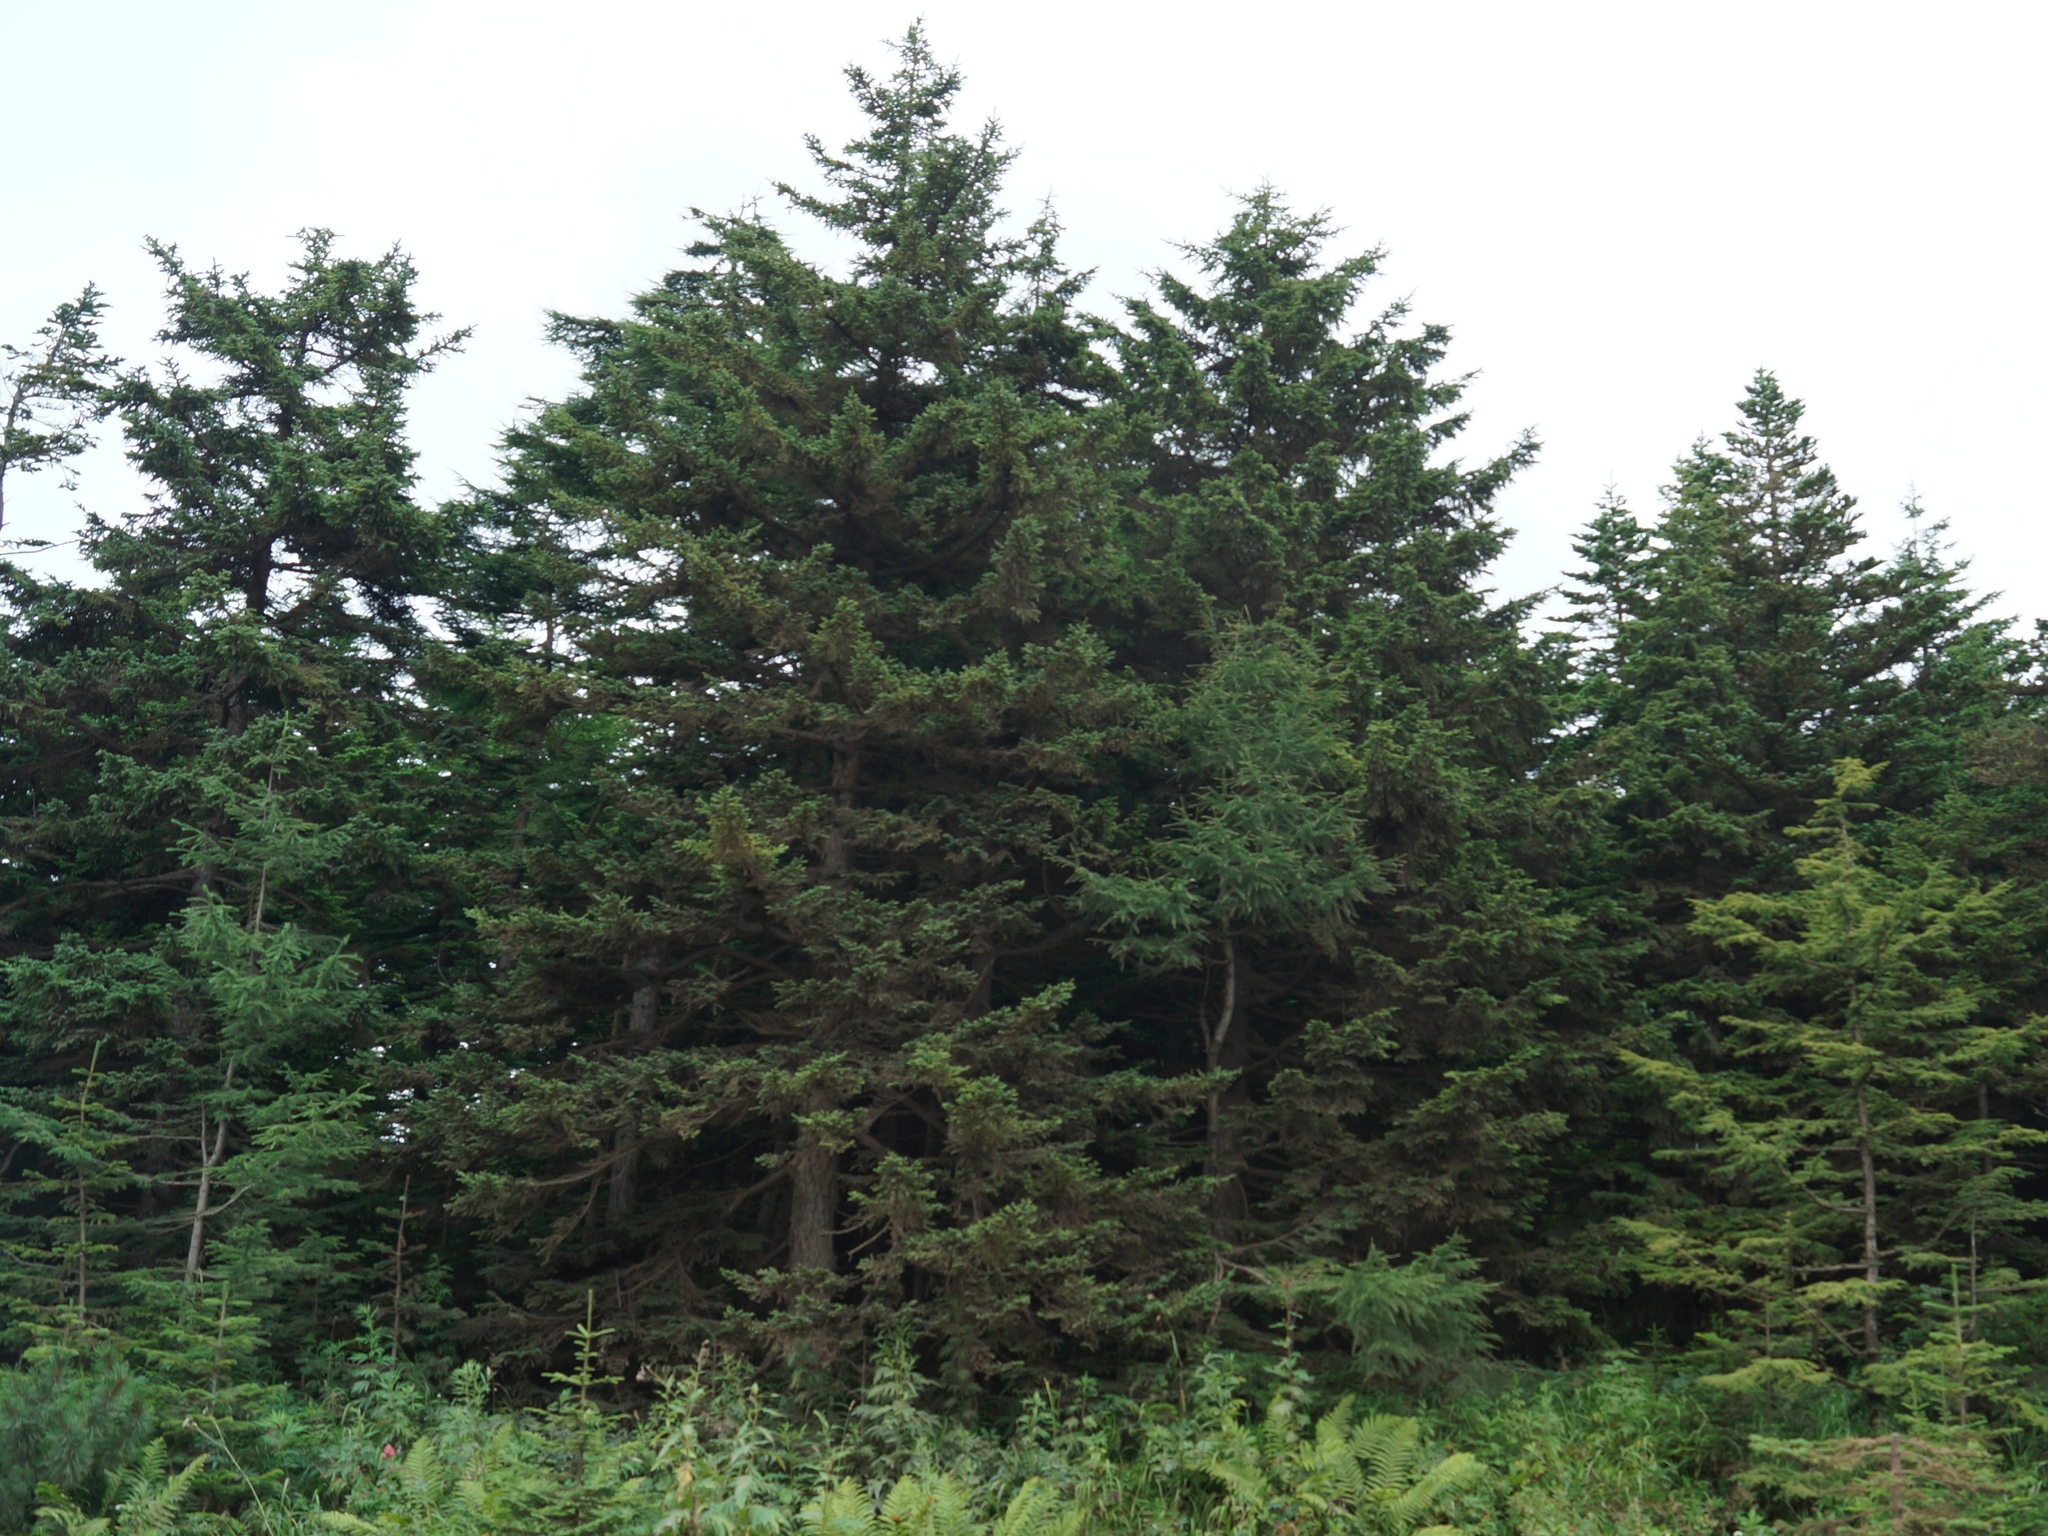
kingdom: Plantae
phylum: Tracheophyta
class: Pinopsida
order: Pinales
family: Pinaceae
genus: Picea
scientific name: Picea glehnii
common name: Sakhalin spruce
